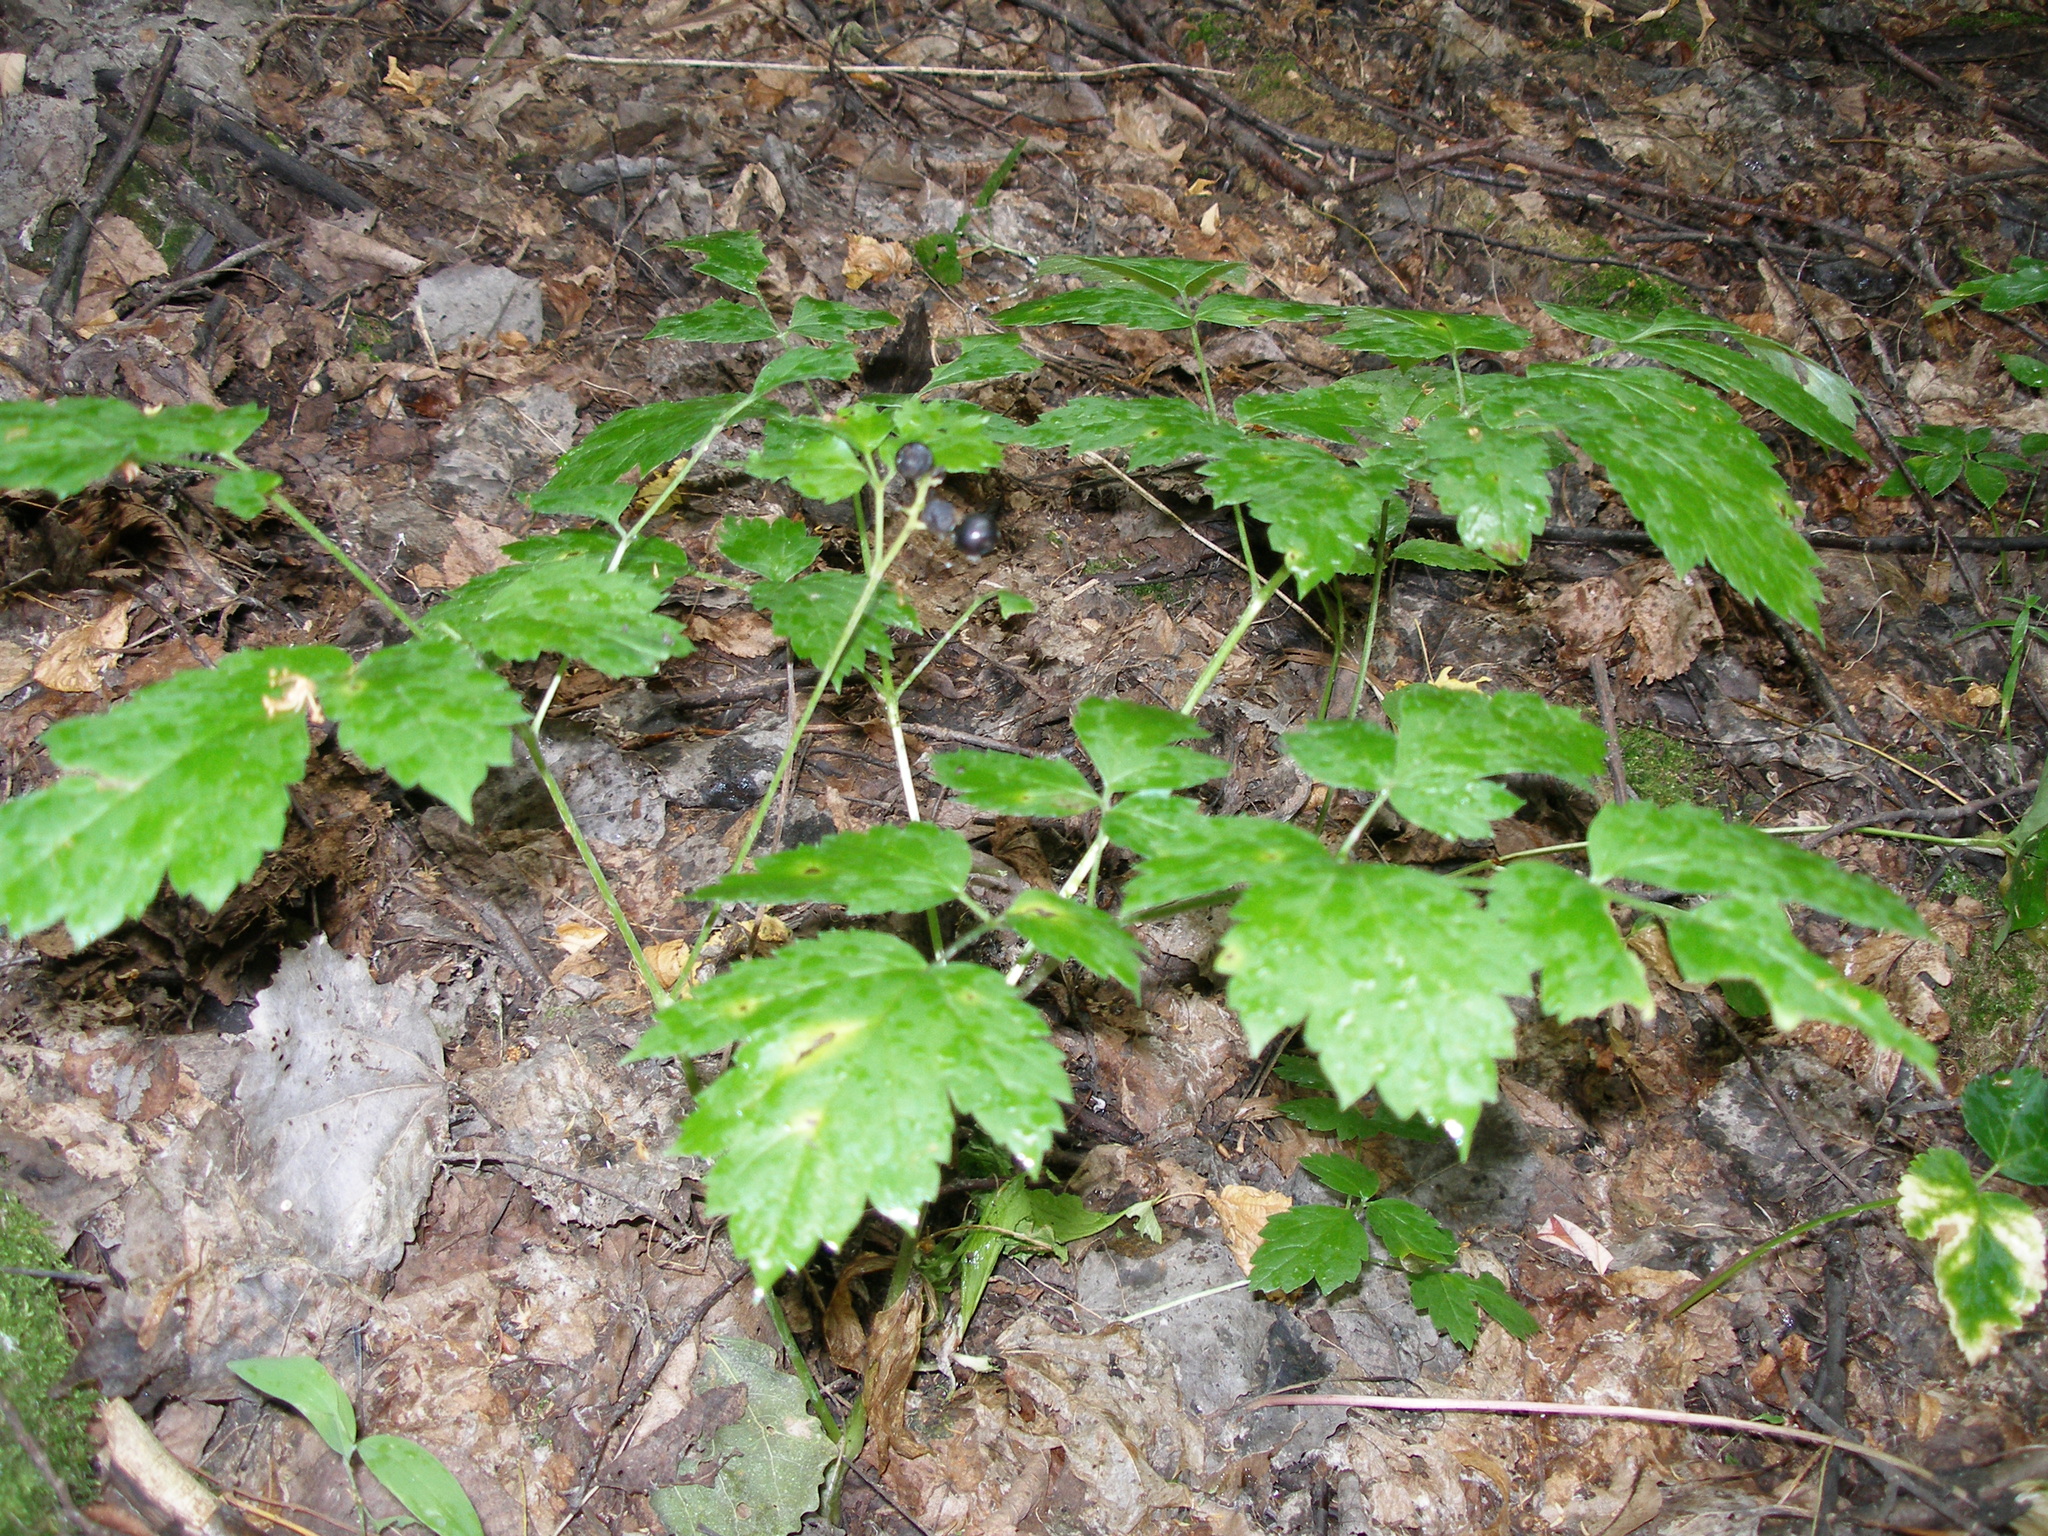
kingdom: Plantae
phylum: Tracheophyta
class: Magnoliopsida
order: Ranunculales
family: Ranunculaceae
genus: Actaea
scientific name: Actaea spicata
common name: Baneberry
